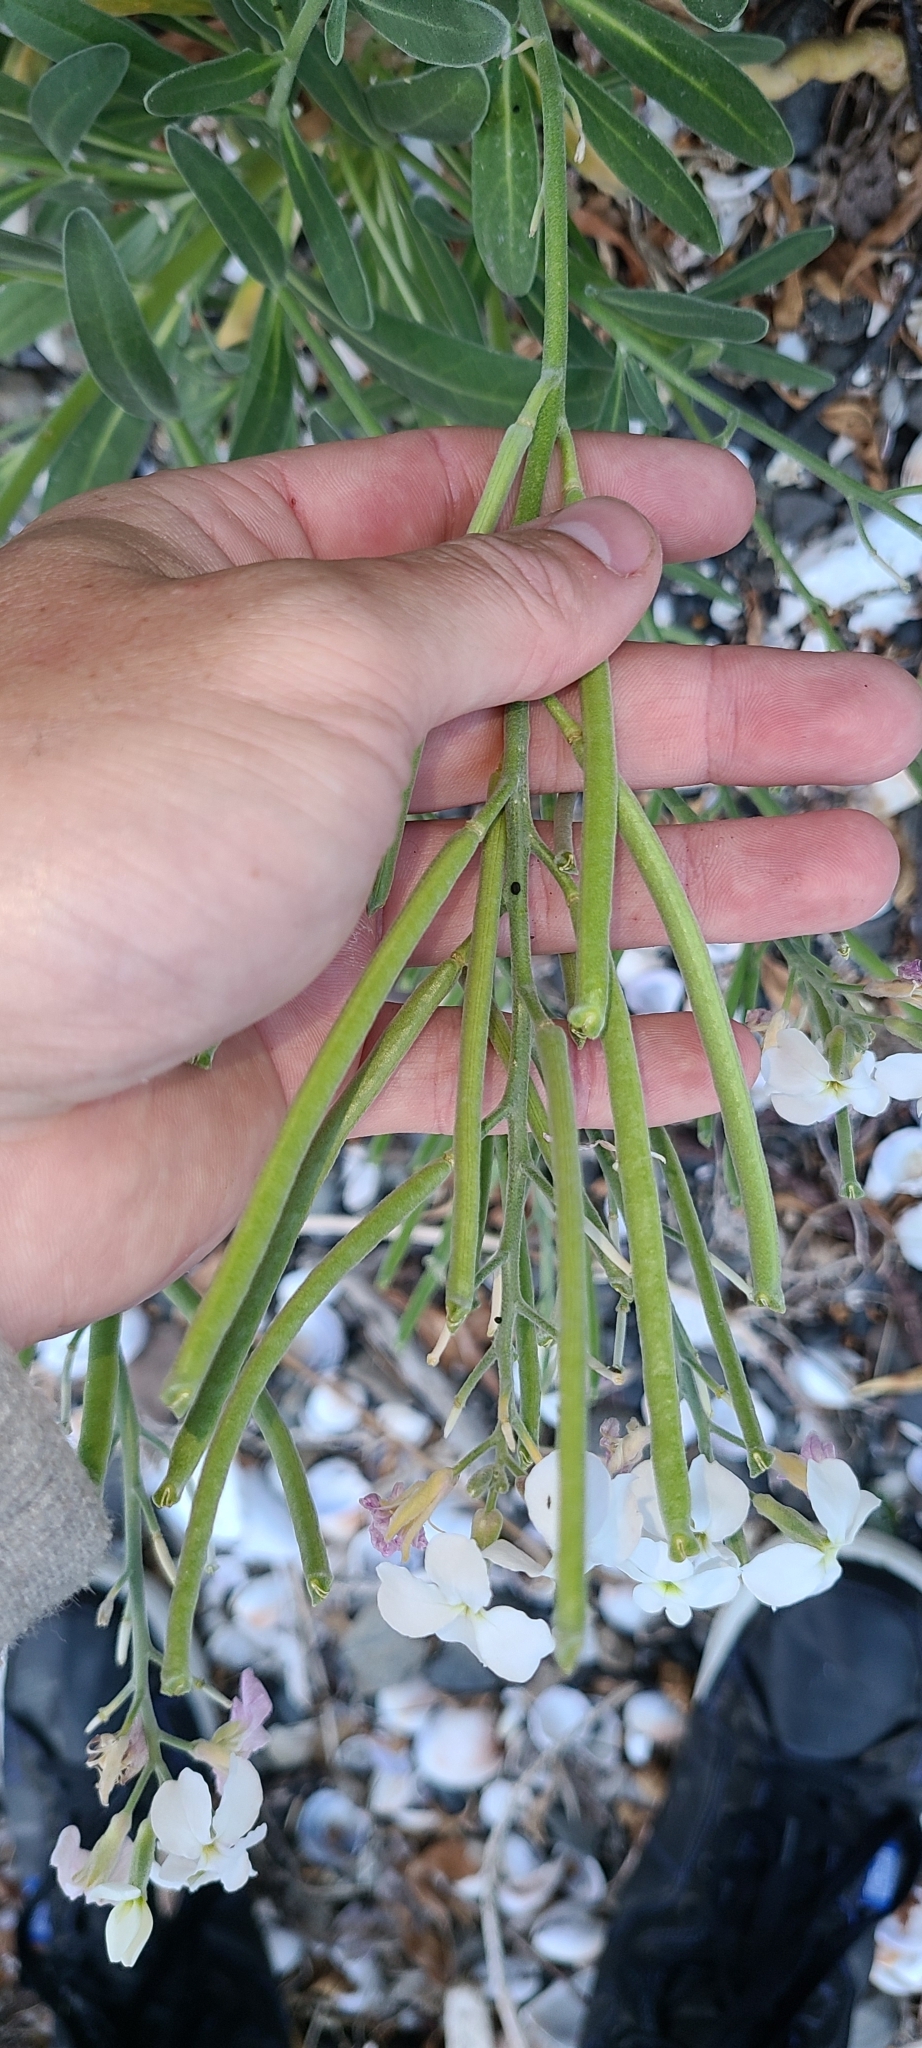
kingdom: Plantae
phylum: Tracheophyta
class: Magnoliopsida
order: Brassicales
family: Brassicaceae
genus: Matthiola
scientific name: Matthiola incana
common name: Hoary stock
